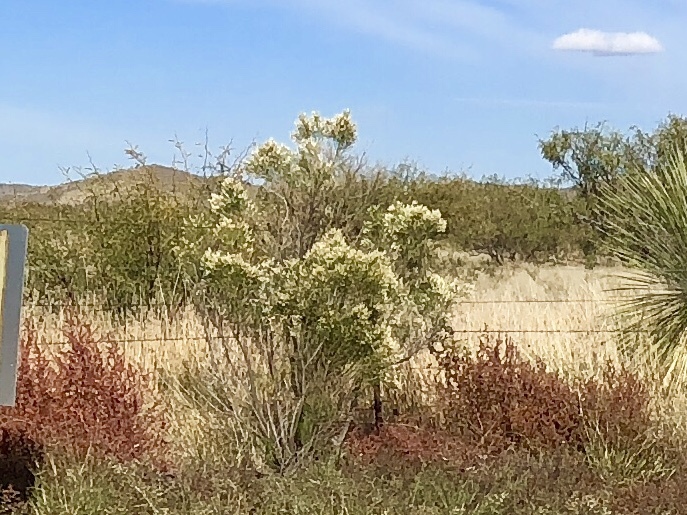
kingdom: Plantae
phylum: Tracheophyta
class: Magnoliopsida
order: Asterales
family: Asteraceae
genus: Baccharis
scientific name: Baccharis sarothroides
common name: Desert-broom
